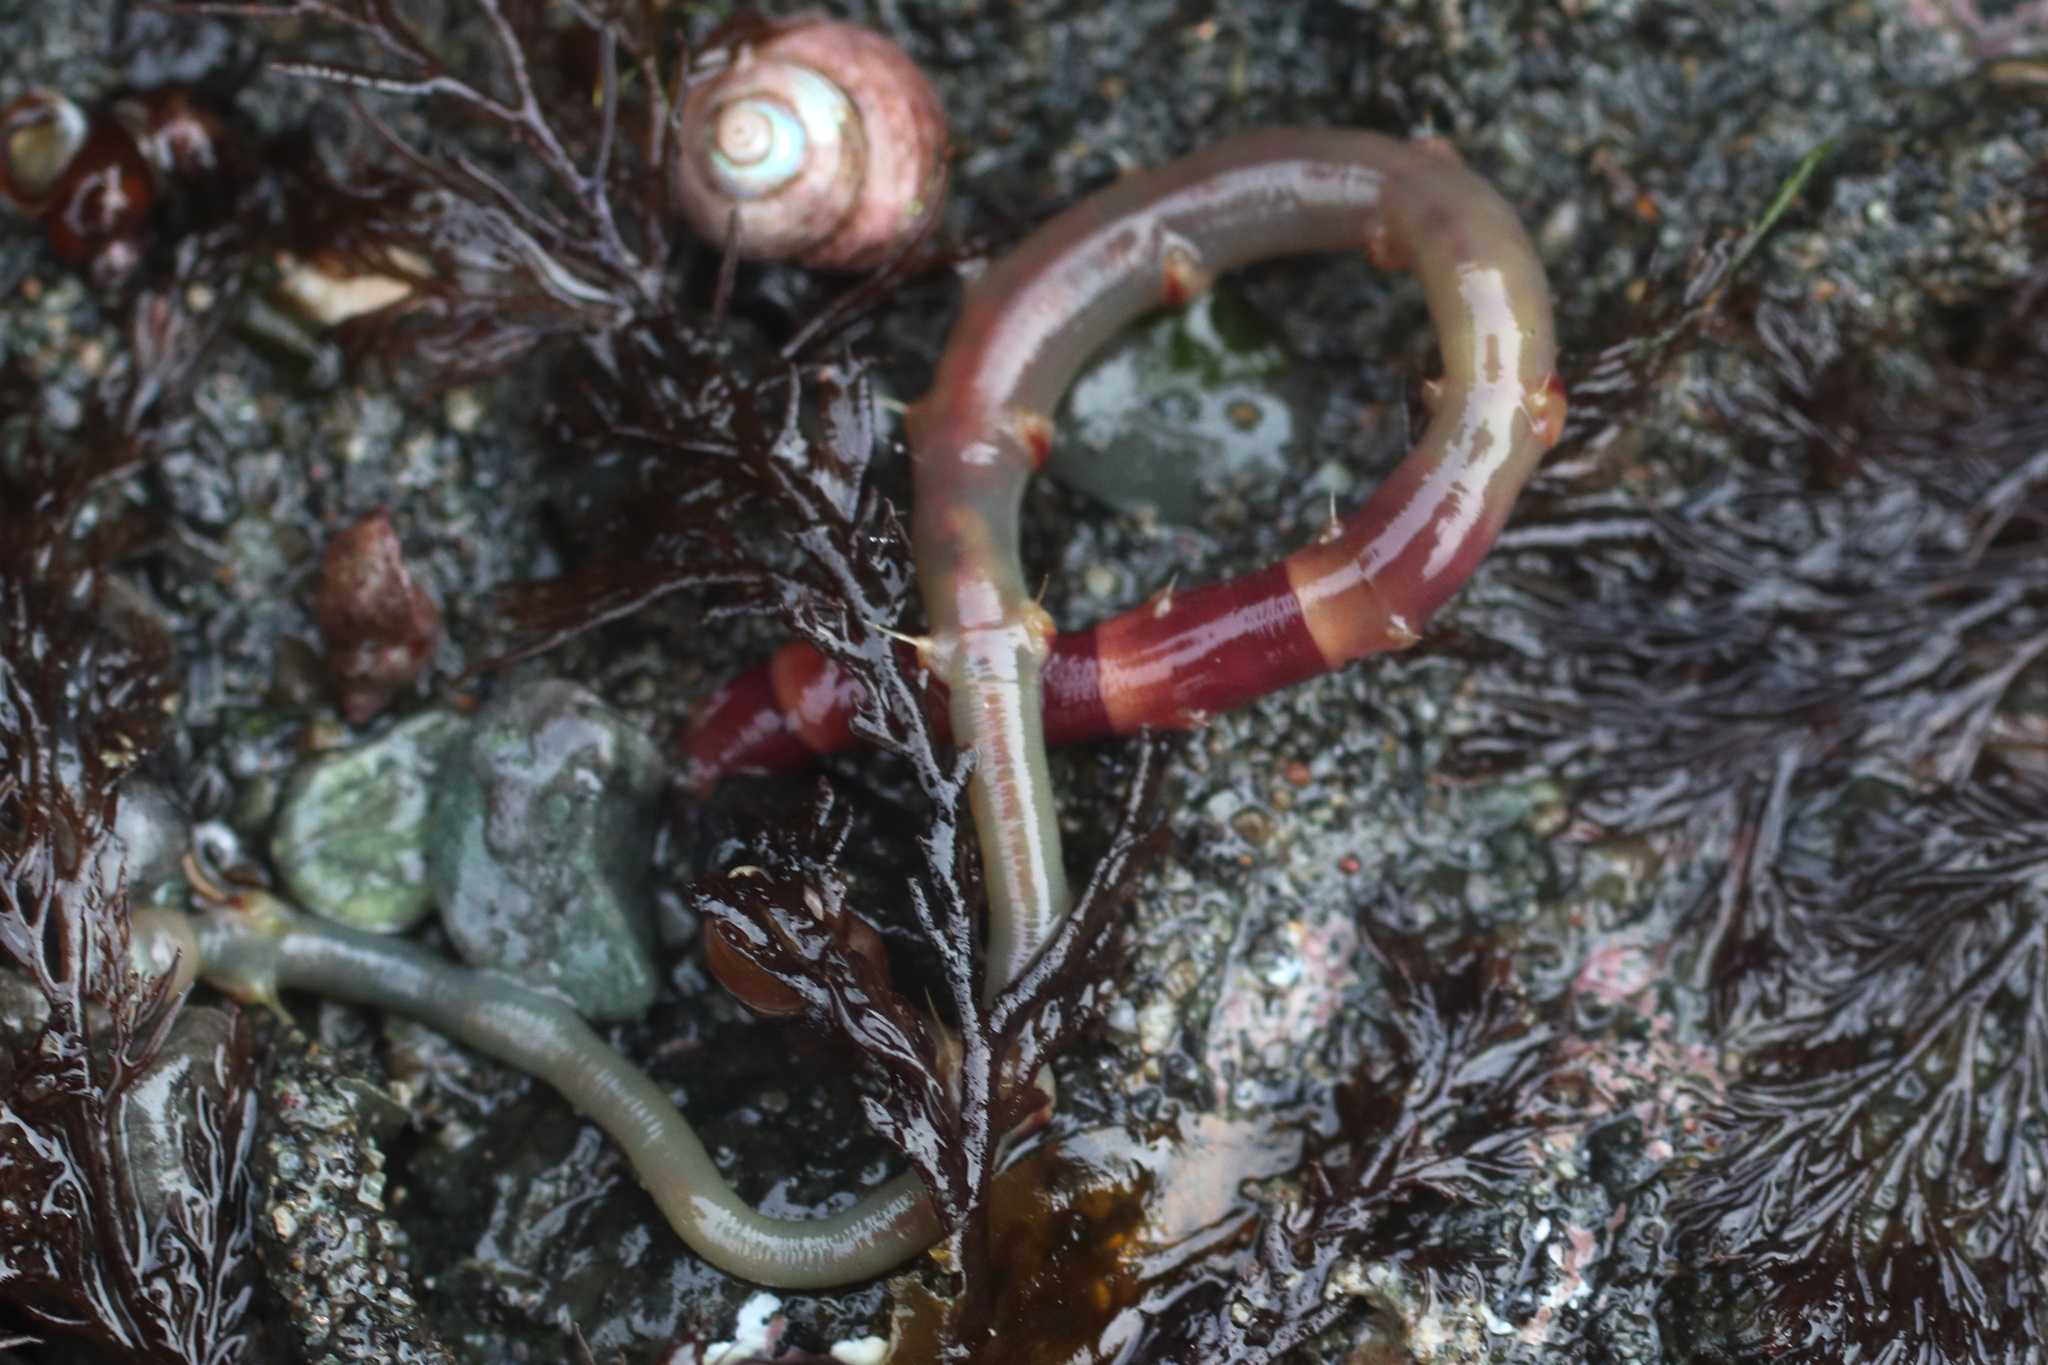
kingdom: Animalia
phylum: Annelida
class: Polychaeta
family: Maldanidae
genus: Axiothella
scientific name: Axiothella rubrocincta
